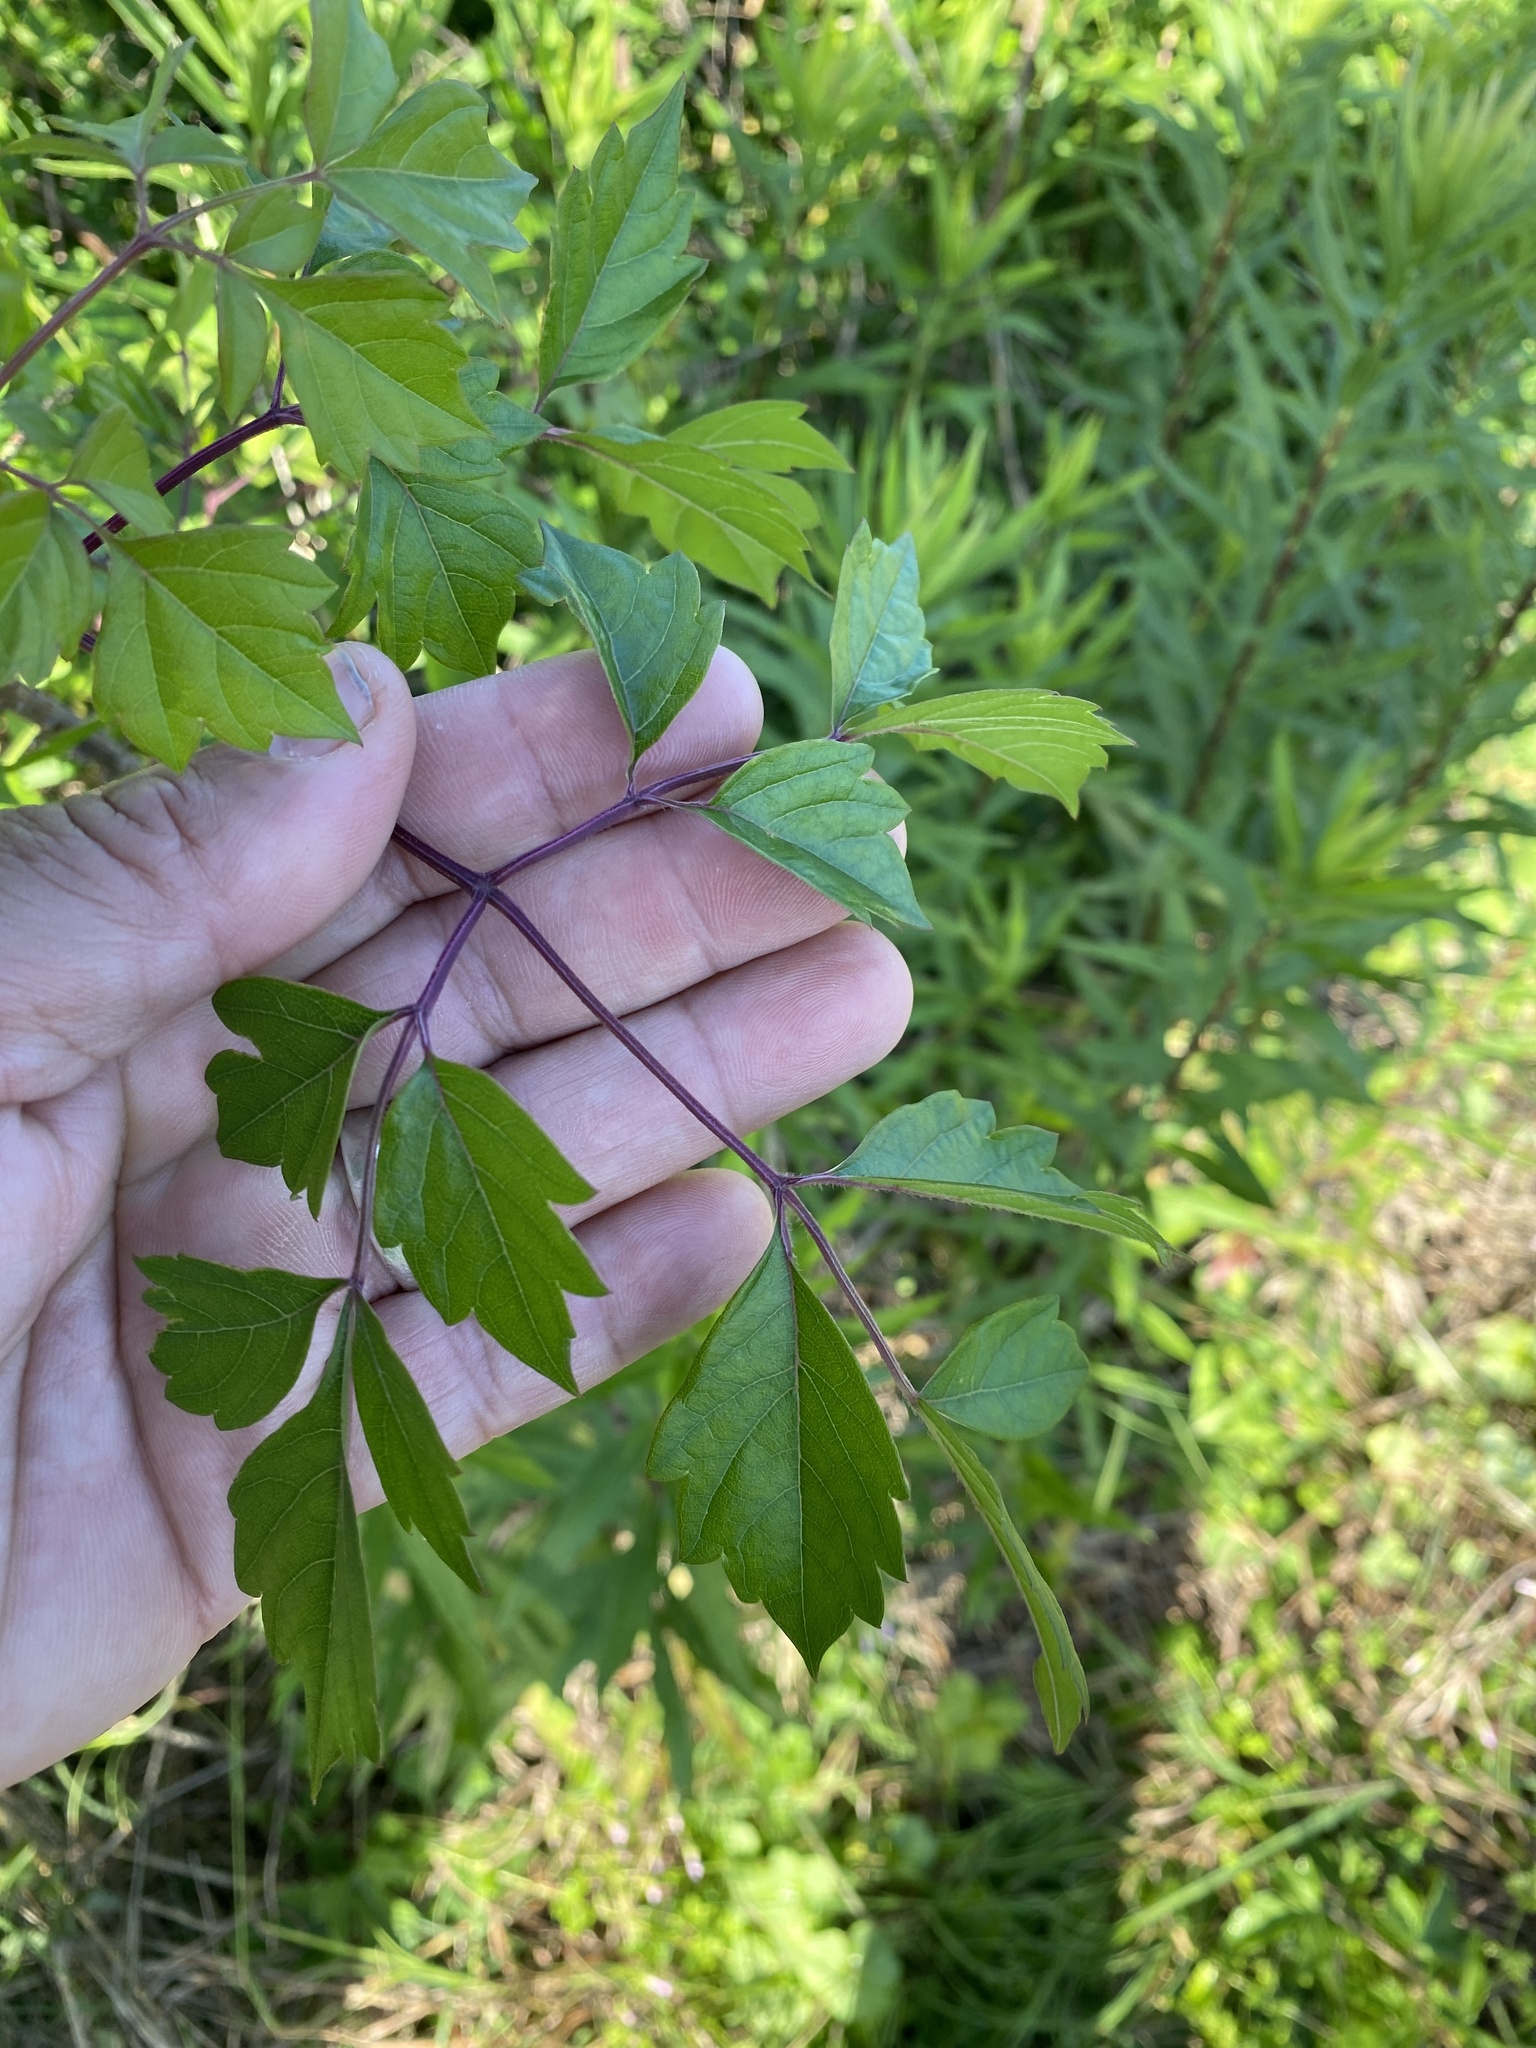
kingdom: Plantae
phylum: Tracheophyta
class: Magnoliopsida
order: Vitales
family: Vitaceae
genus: Nekemias
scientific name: Nekemias arborea
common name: Peppervine
